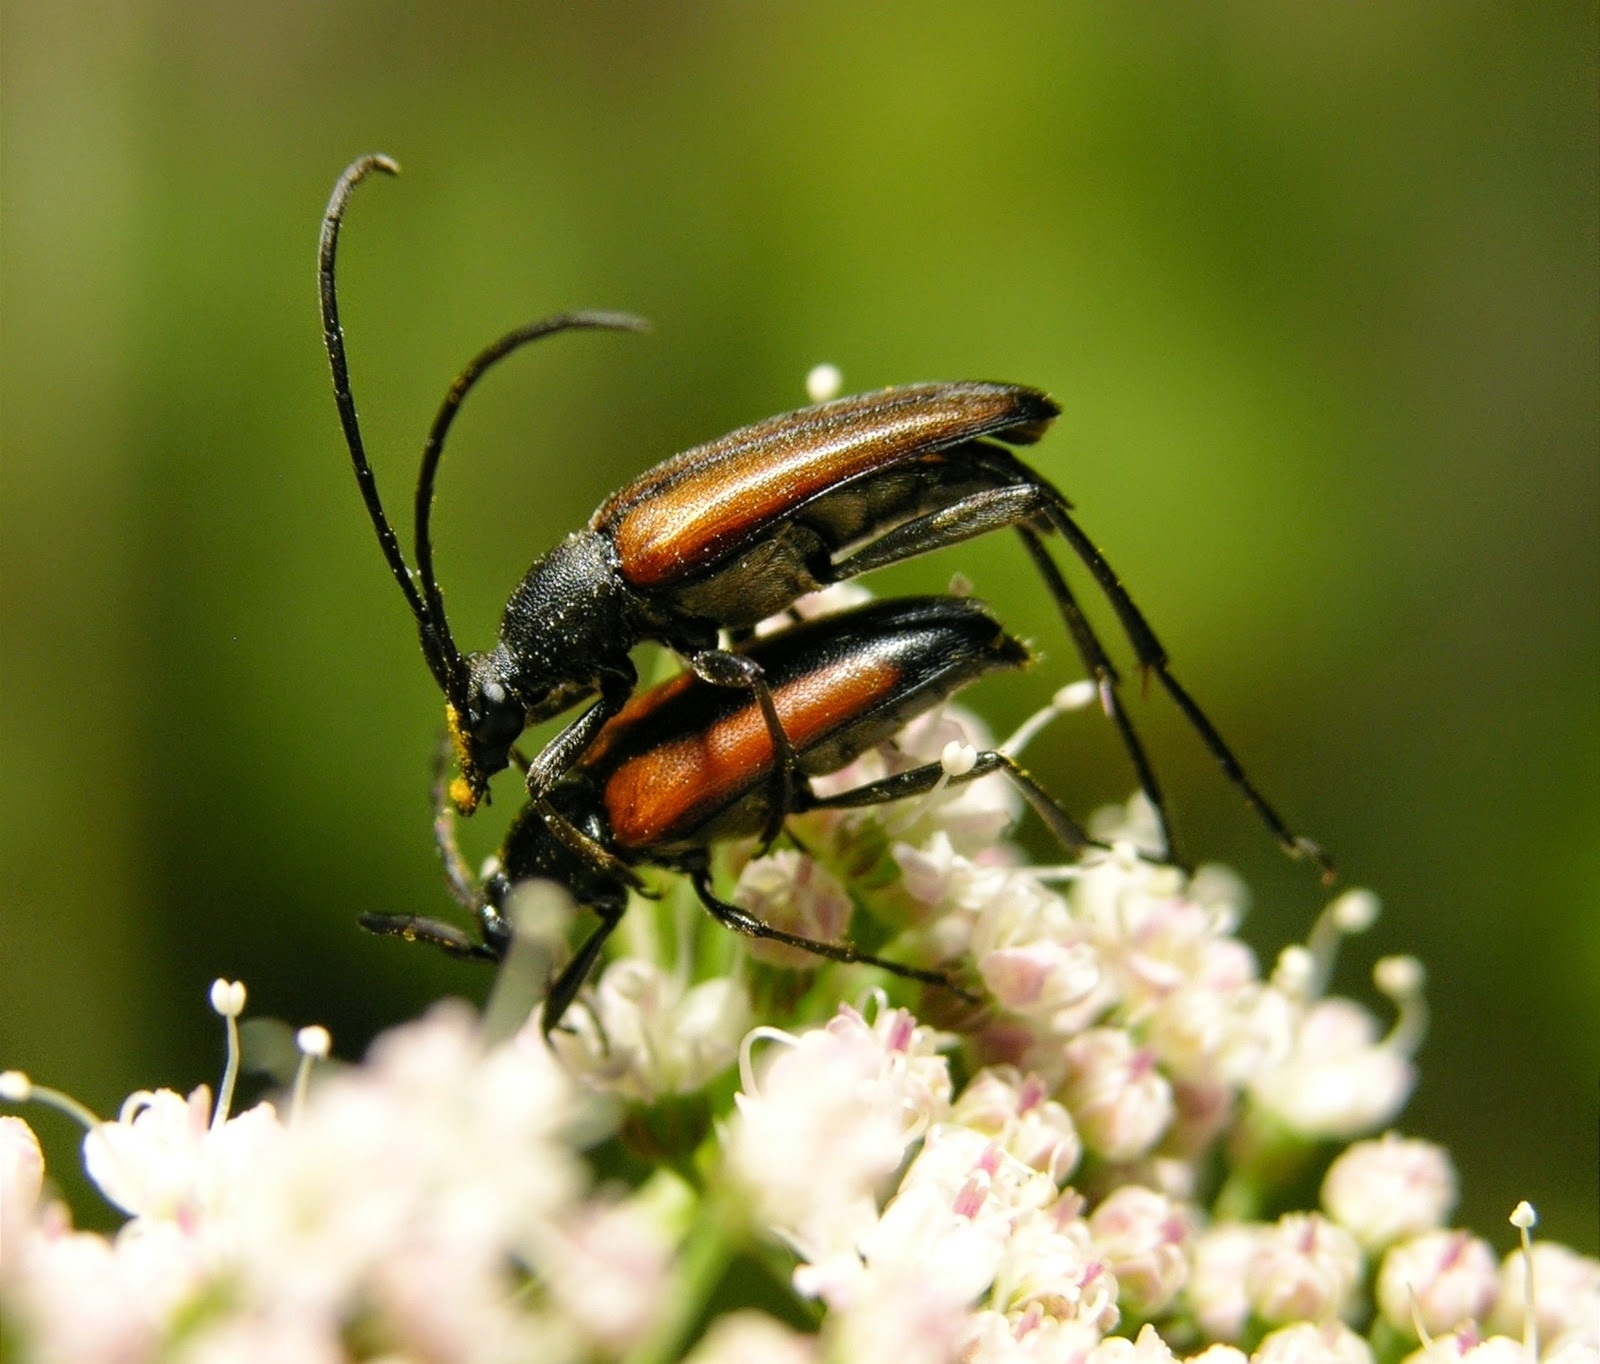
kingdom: Animalia
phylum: Arthropoda
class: Insecta
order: Coleoptera
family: Cerambycidae
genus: Stenurella
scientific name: Stenurella melanura
